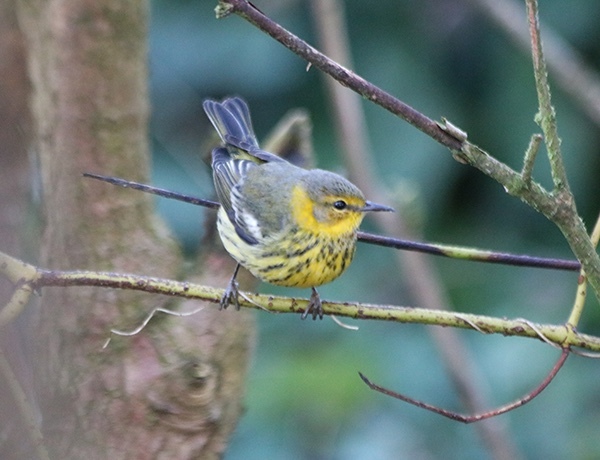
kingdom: Animalia
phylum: Chordata
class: Aves
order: Passeriformes
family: Parulidae
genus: Setophaga
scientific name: Setophaga tigrina
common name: Cape may warbler
